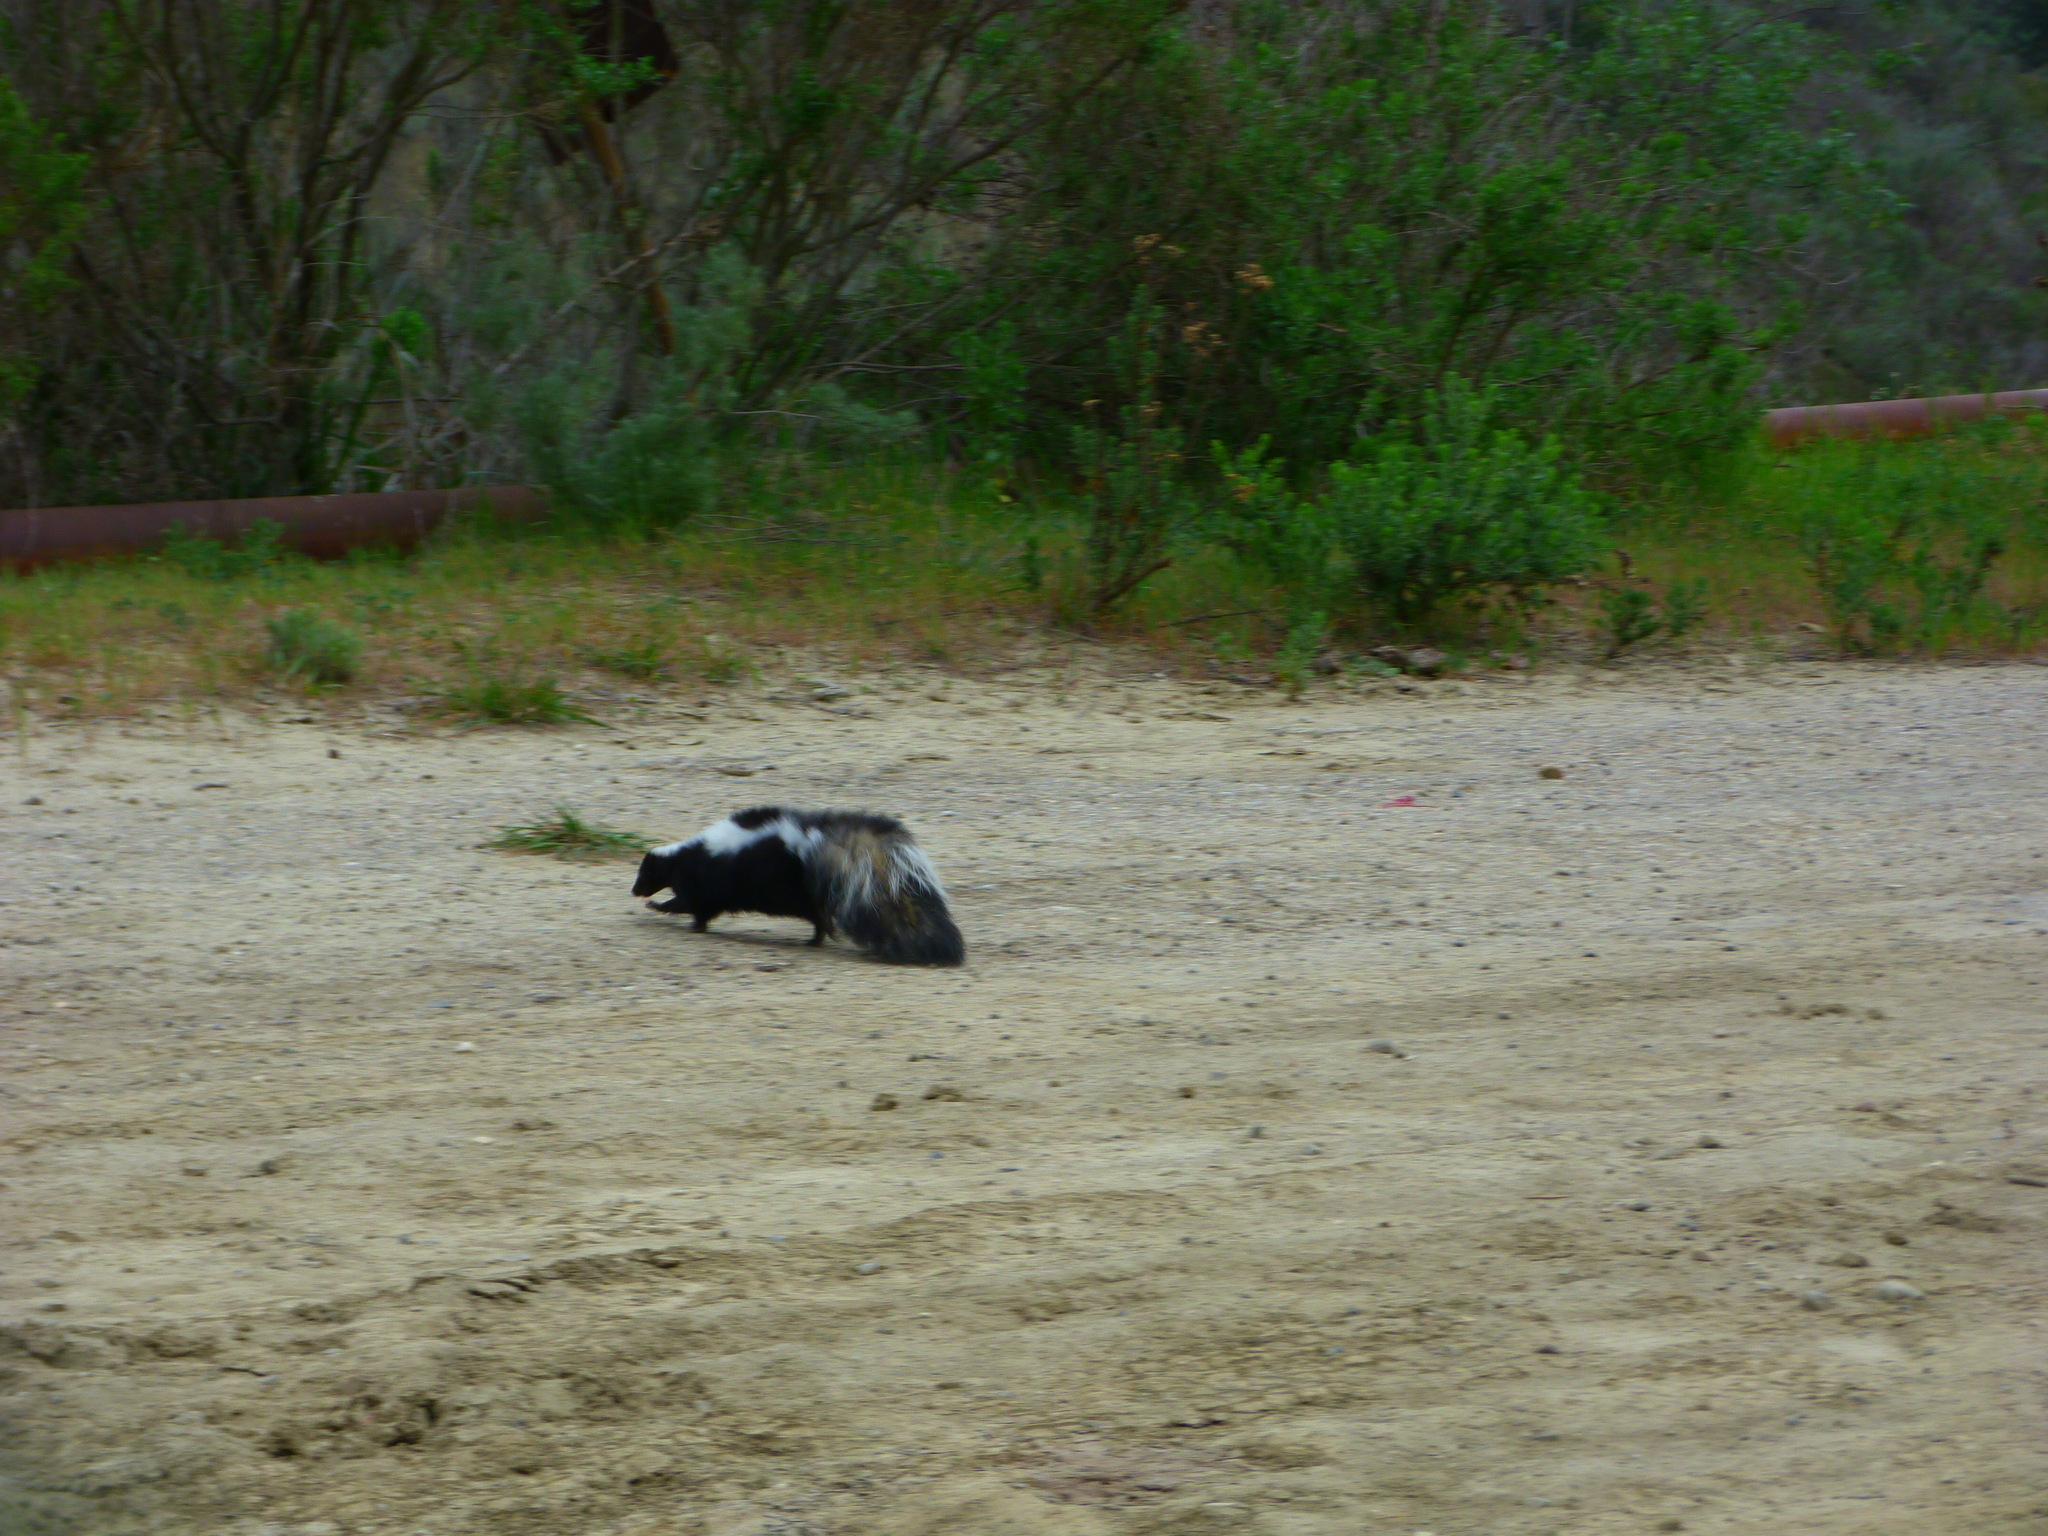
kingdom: Animalia
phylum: Chordata
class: Mammalia
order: Carnivora
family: Mephitidae
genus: Mephitis
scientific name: Mephitis mephitis
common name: Striped skunk
